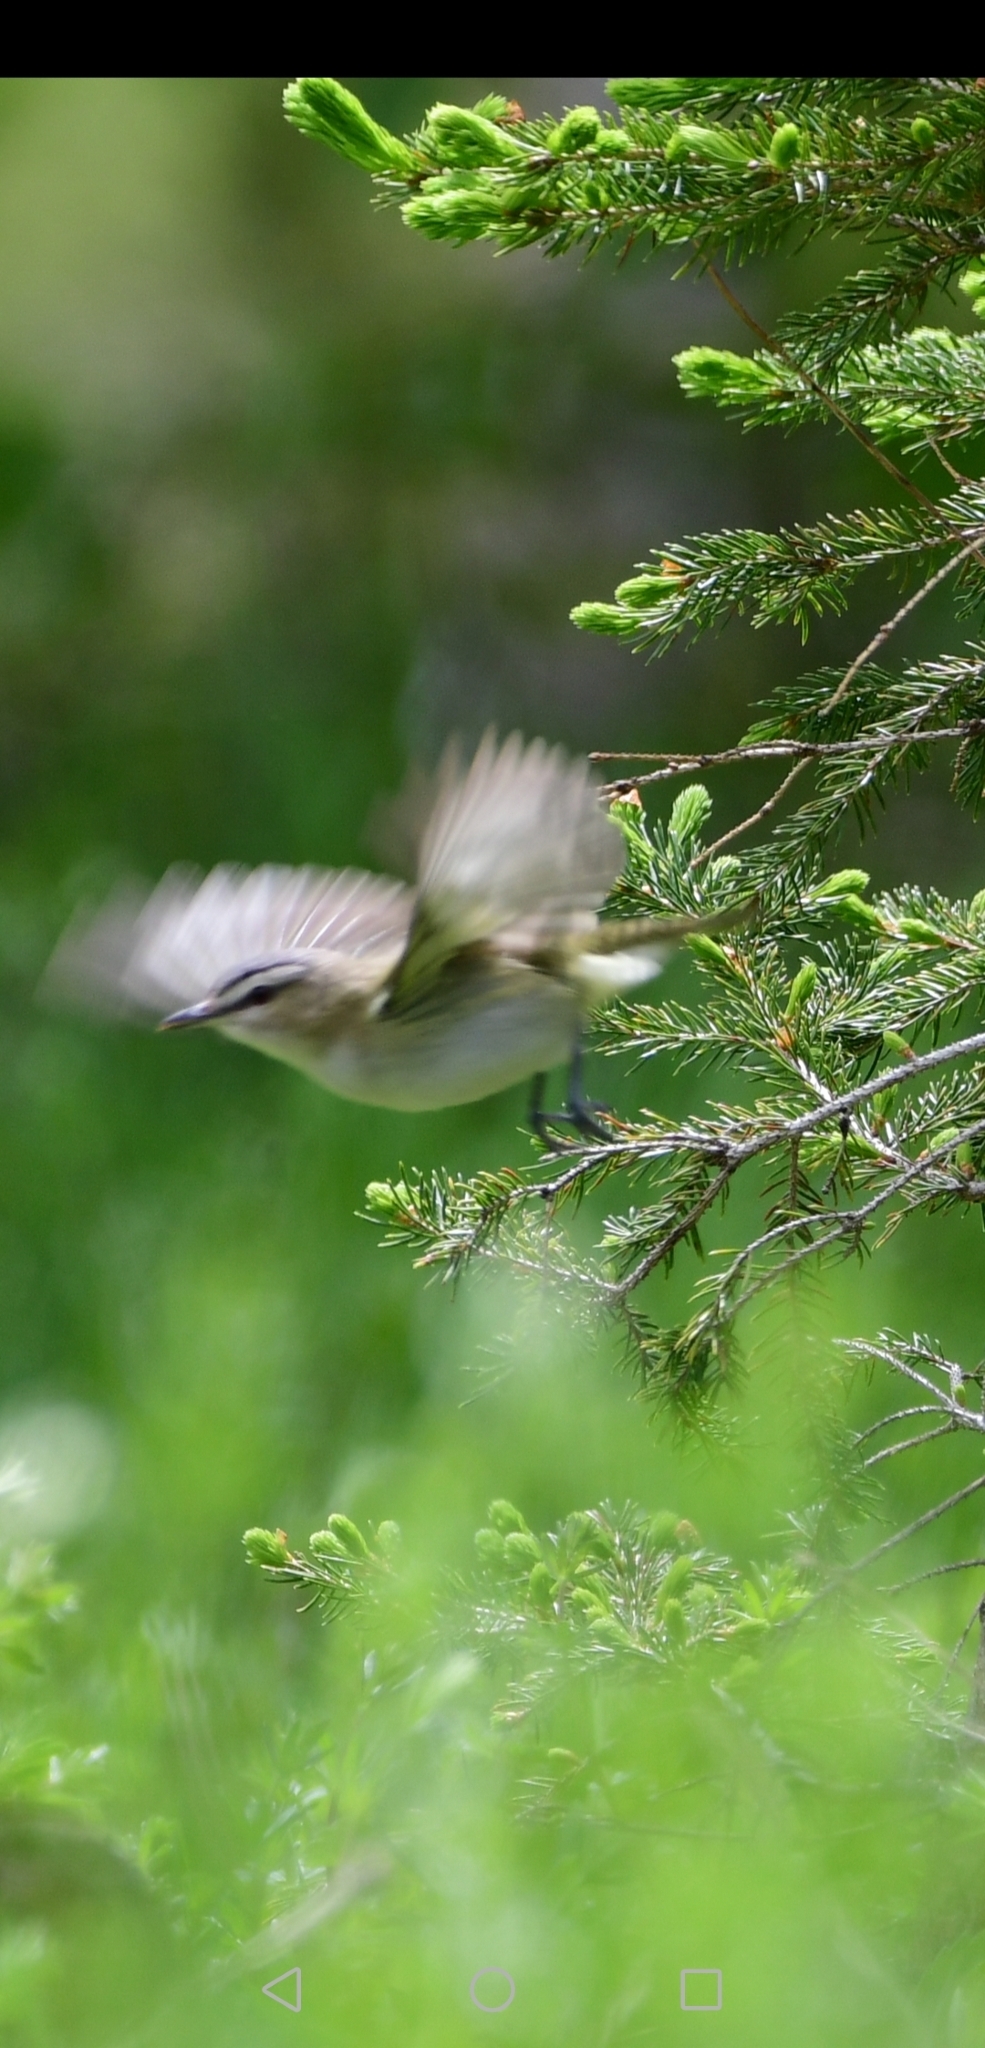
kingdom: Animalia
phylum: Chordata
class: Aves
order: Passeriformes
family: Vireonidae
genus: Vireo
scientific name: Vireo olivaceus
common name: Red-eyed vireo
